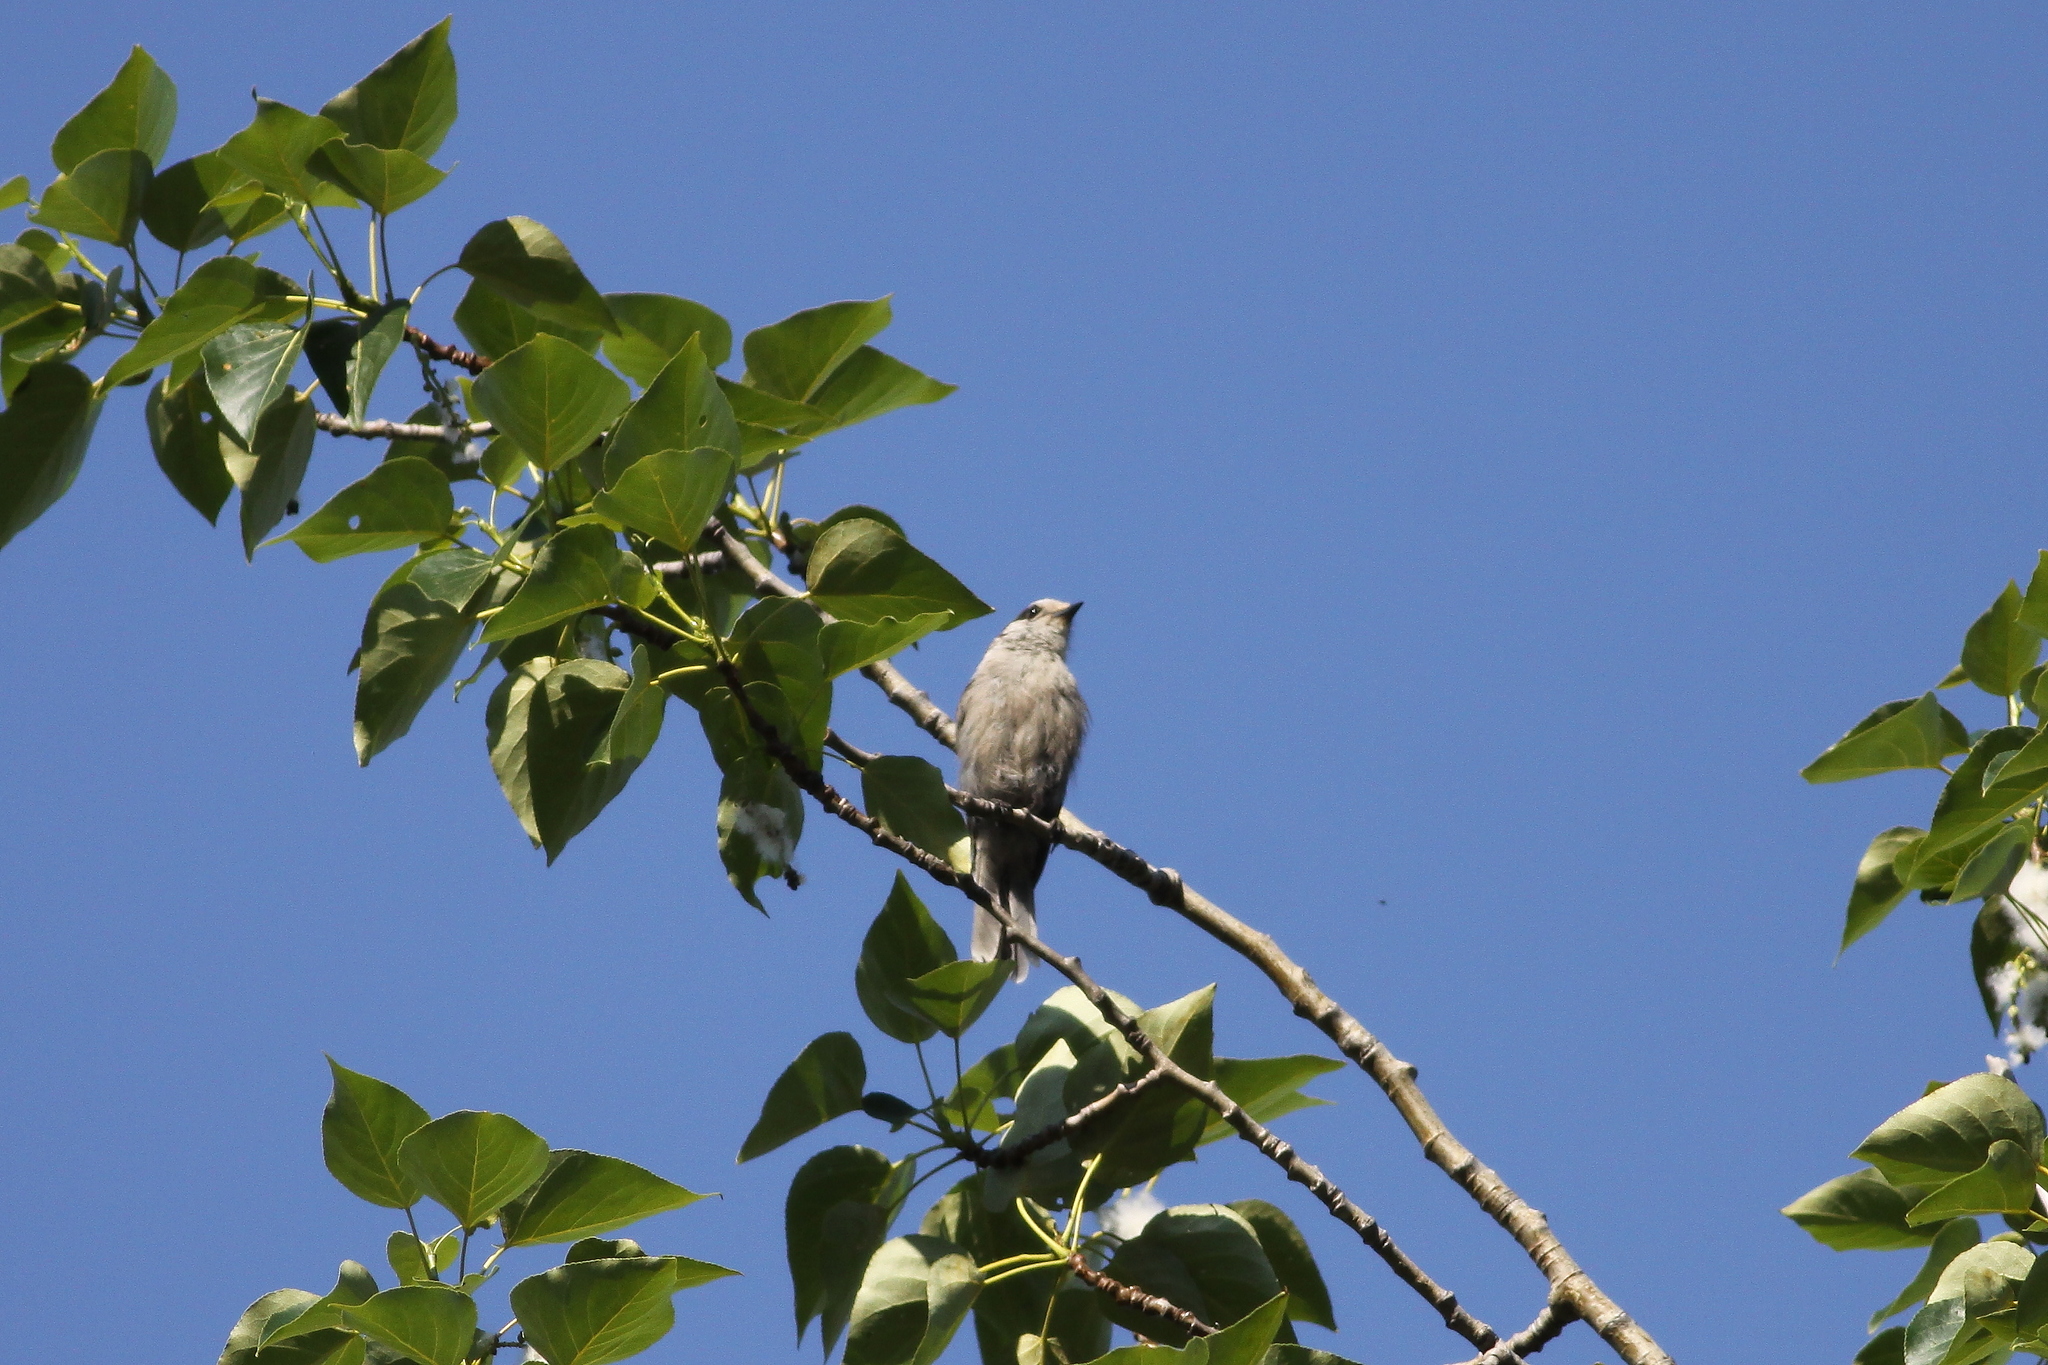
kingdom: Animalia
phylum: Chordata
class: Aves
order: Passeriformes
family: Corvidae
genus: Perisoreus
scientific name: Perisoreus canadensis
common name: Gray jay
